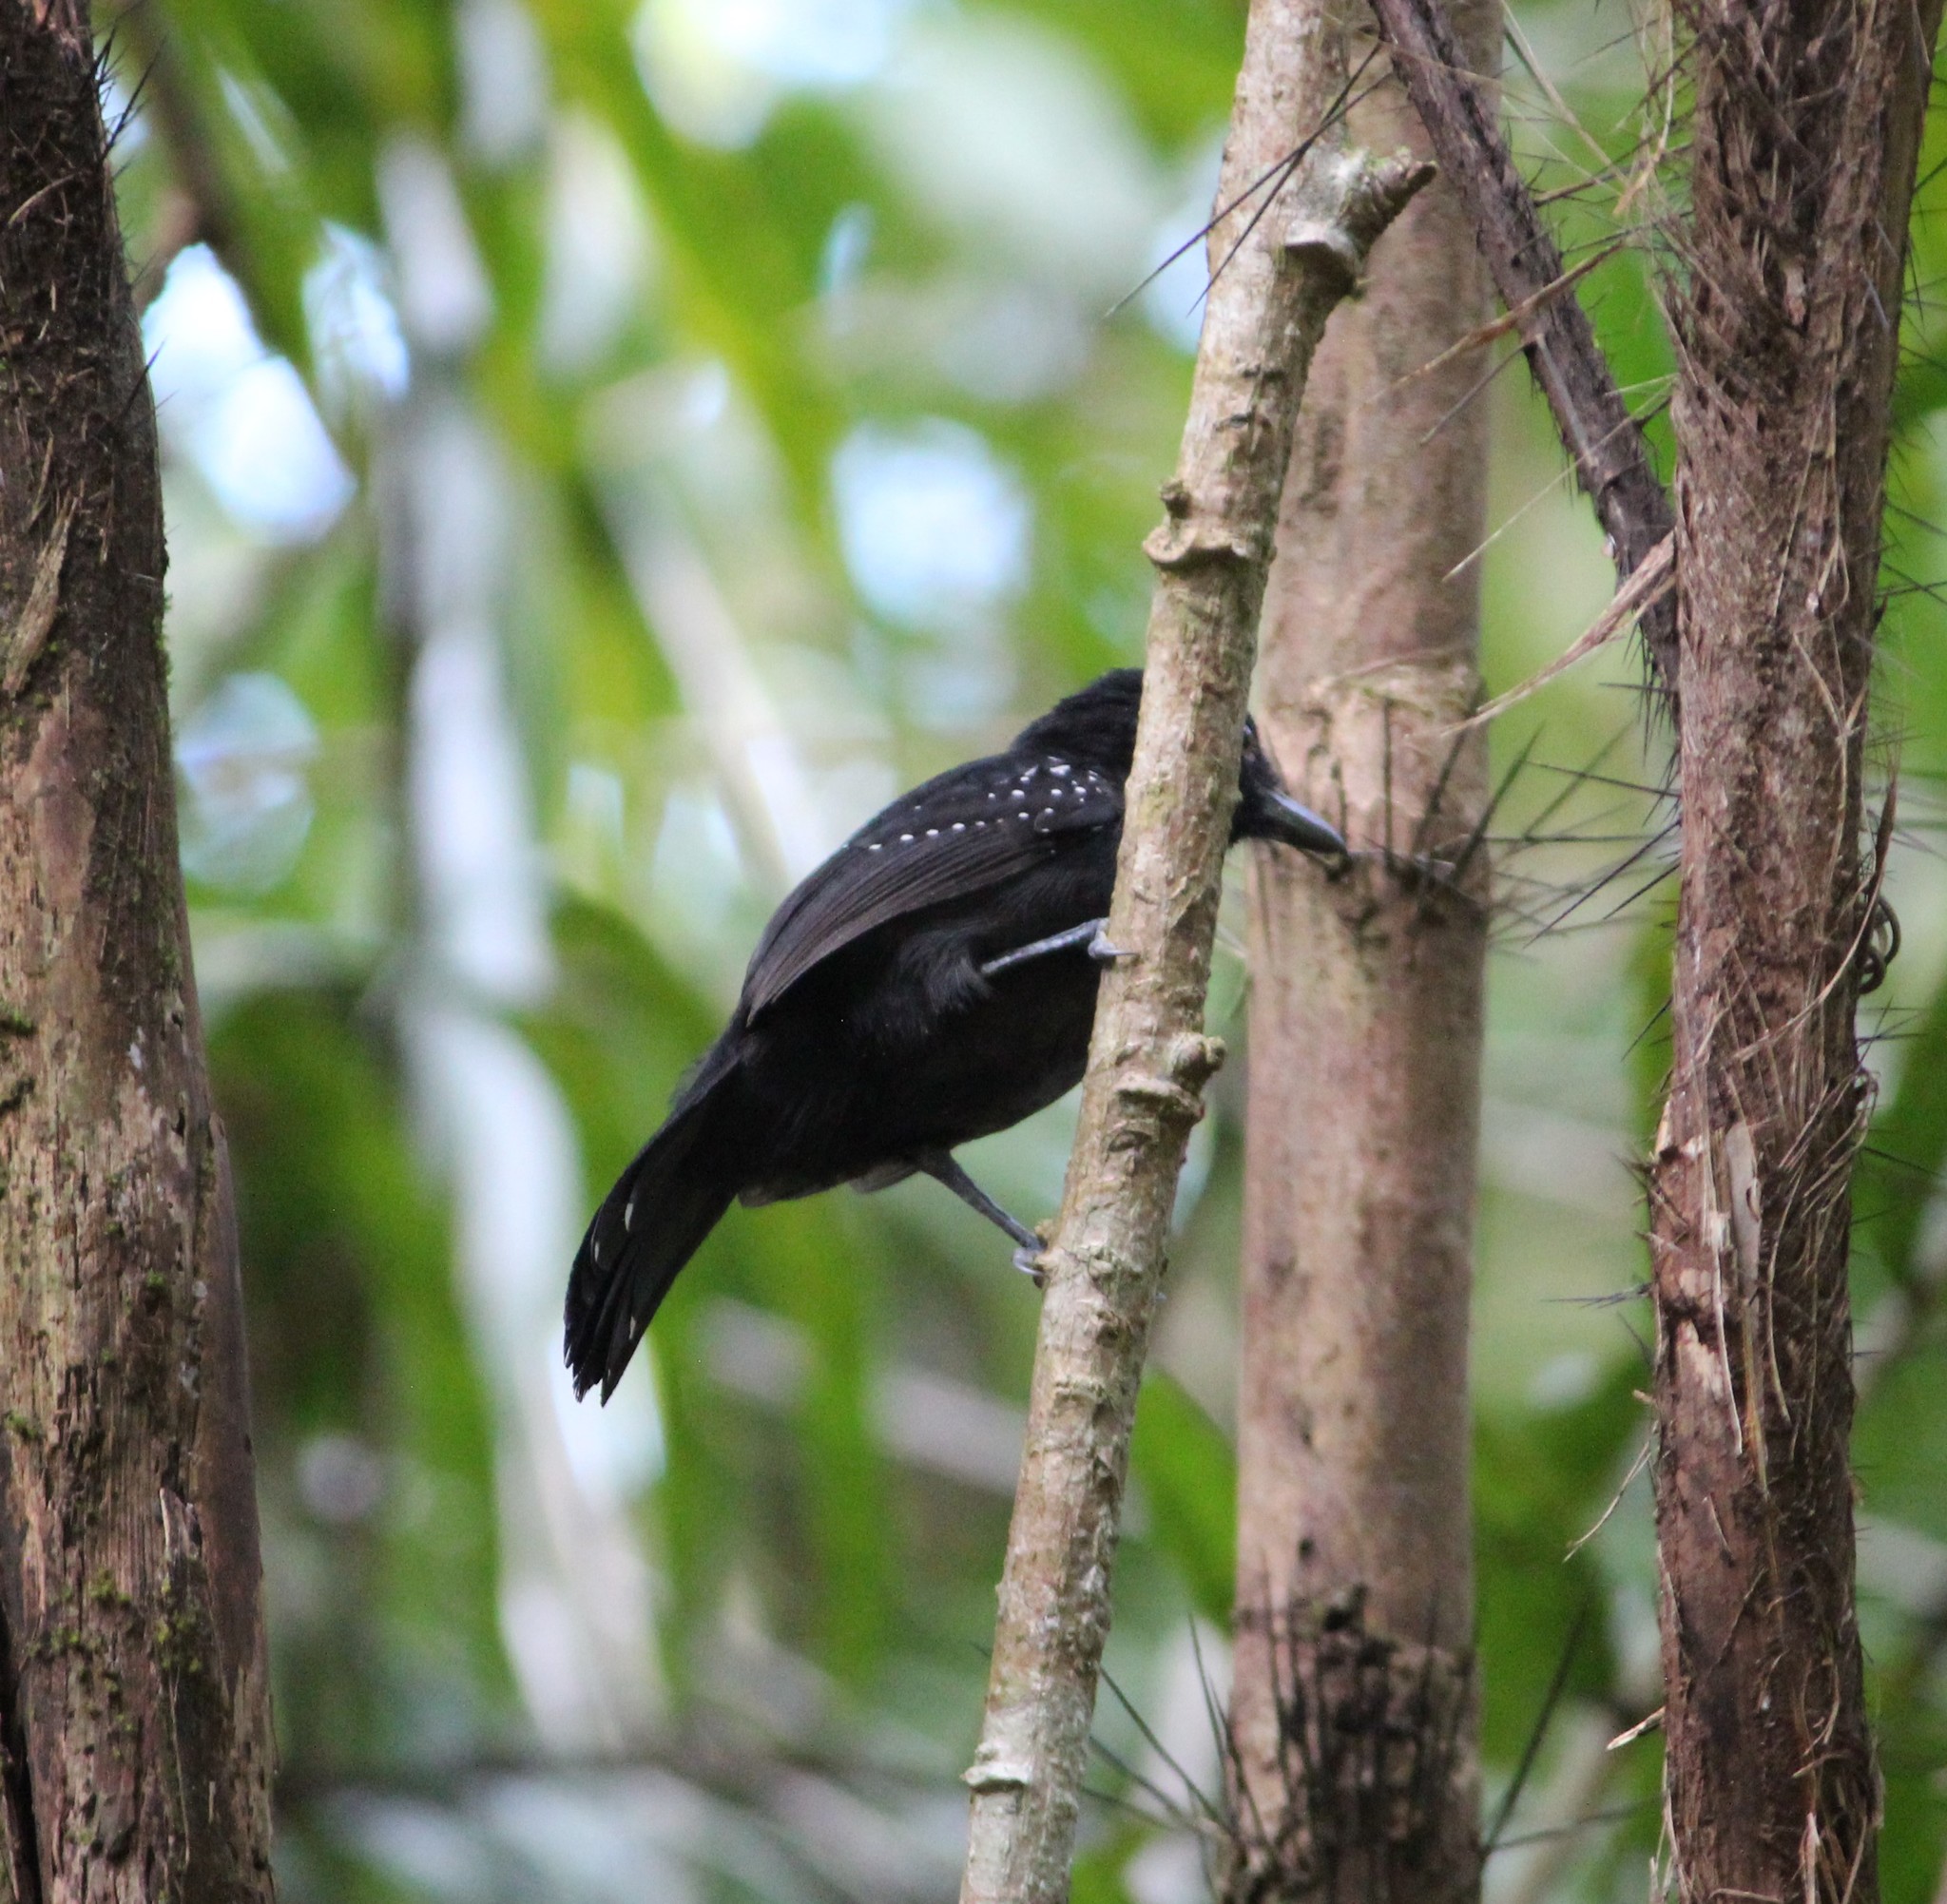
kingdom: Animalia
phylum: Chordata
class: Aves
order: Passeriformes
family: Thamnophilidae
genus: Thamnophilus
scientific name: Thamnophilus bridgesi
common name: Black-hooded antshrike
